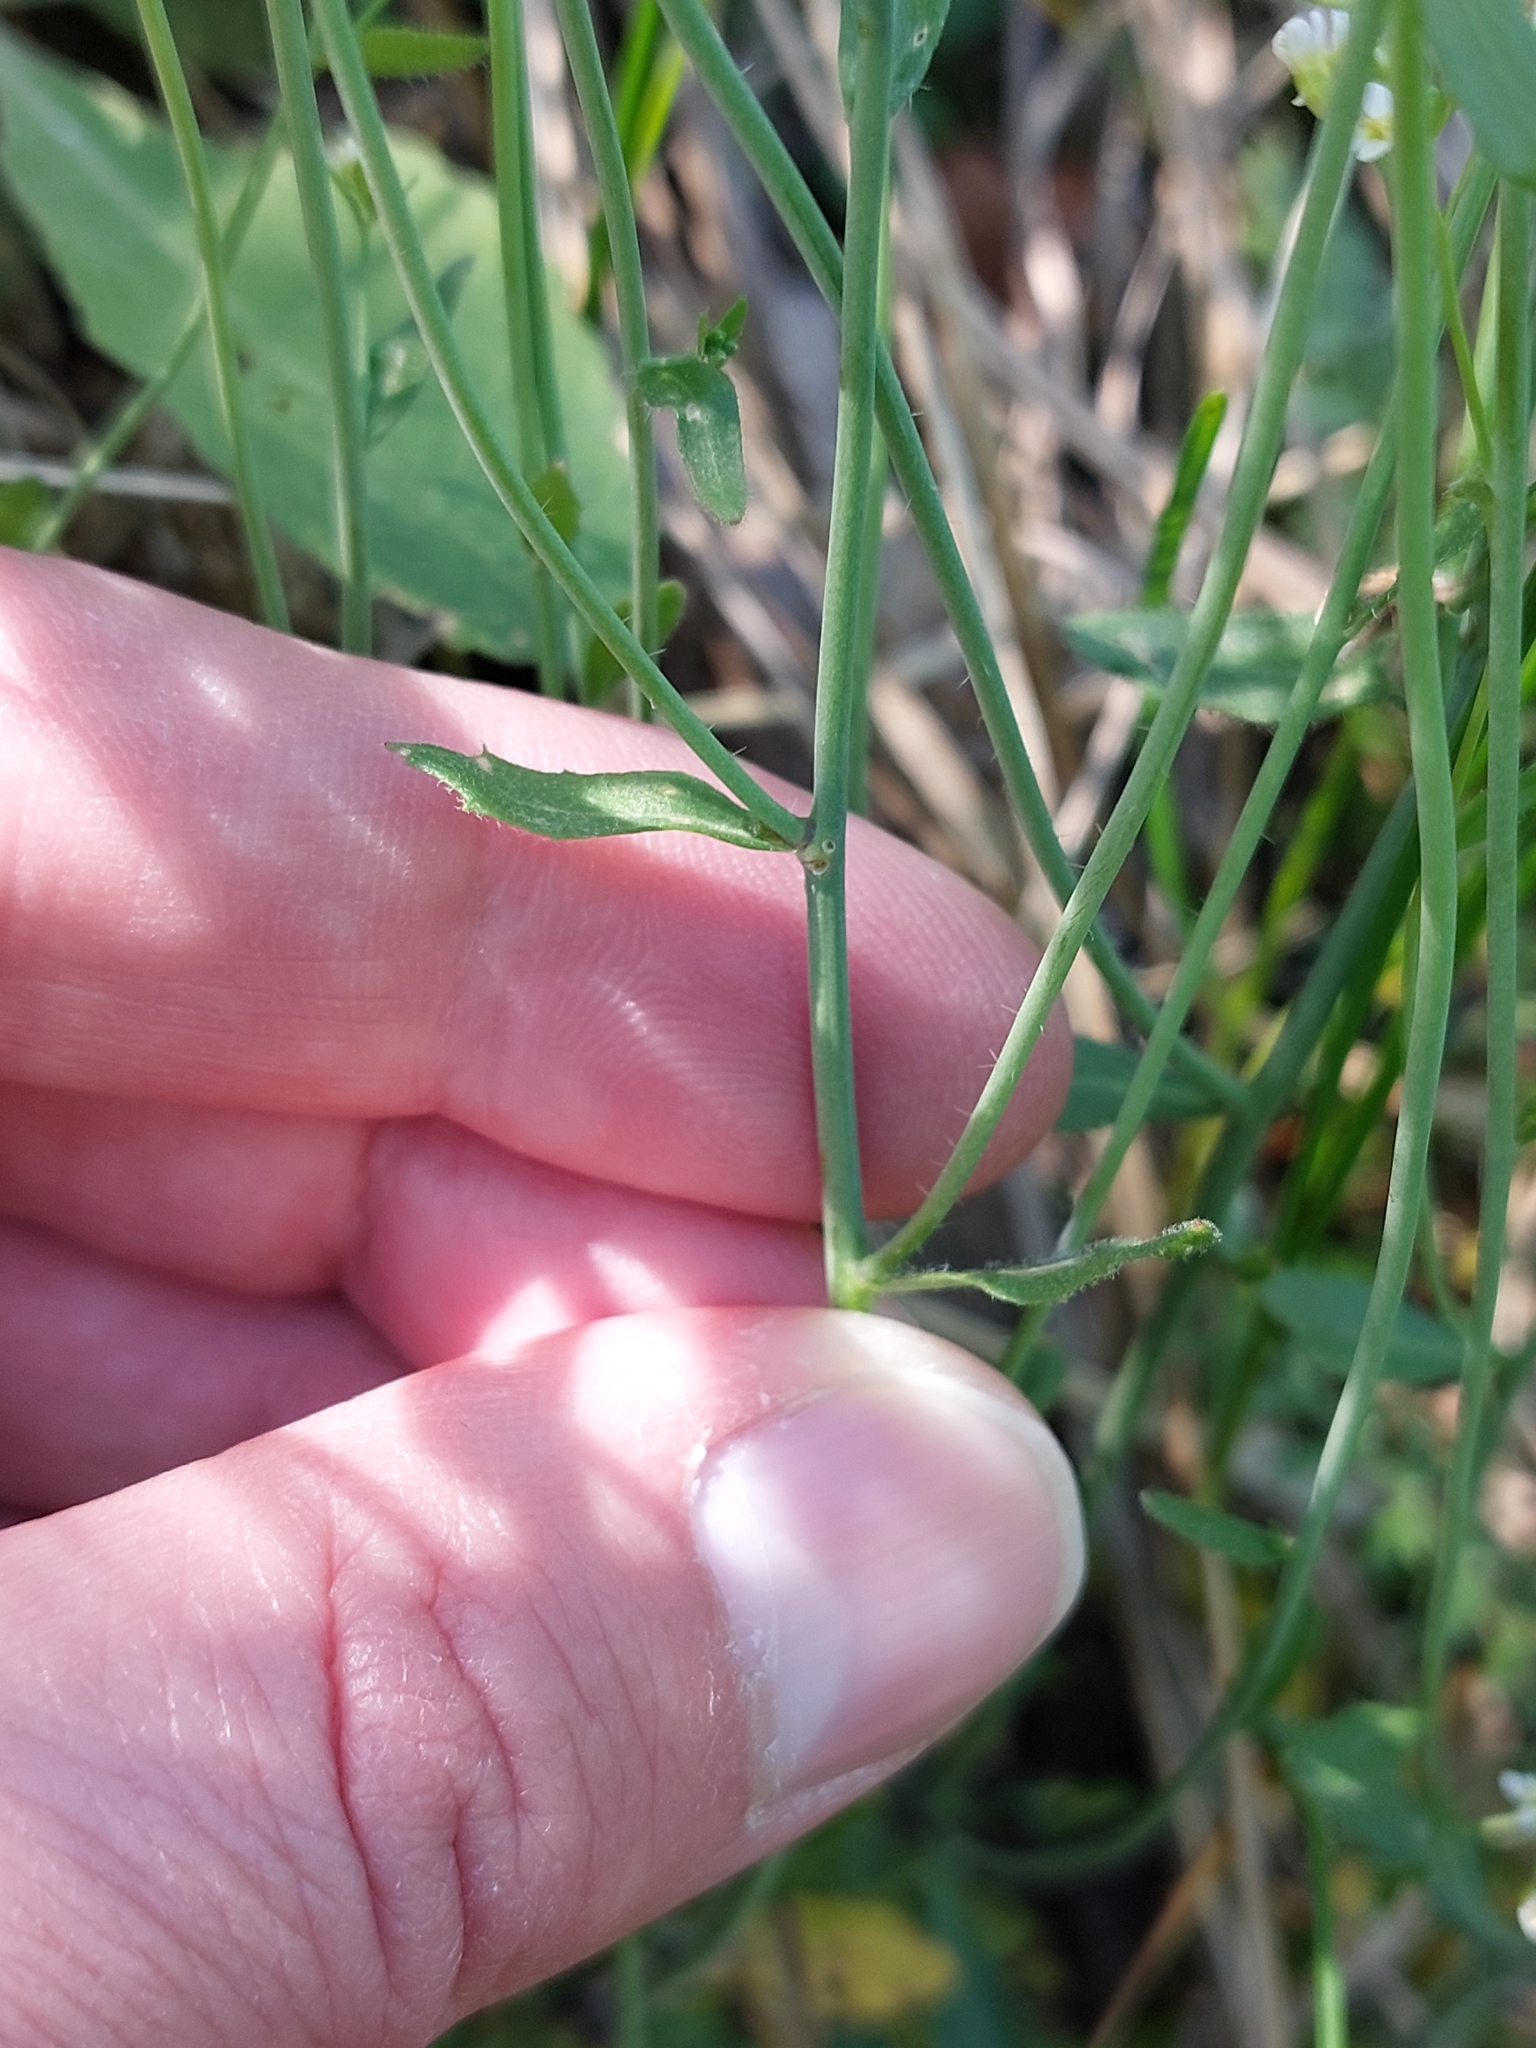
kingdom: Plantae
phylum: Tracheophyta
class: Magnoliopsida
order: Brassicales
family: Brassicaceae
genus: Arabidopsis
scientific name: Arabidopsis thaliana
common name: Thale cress
